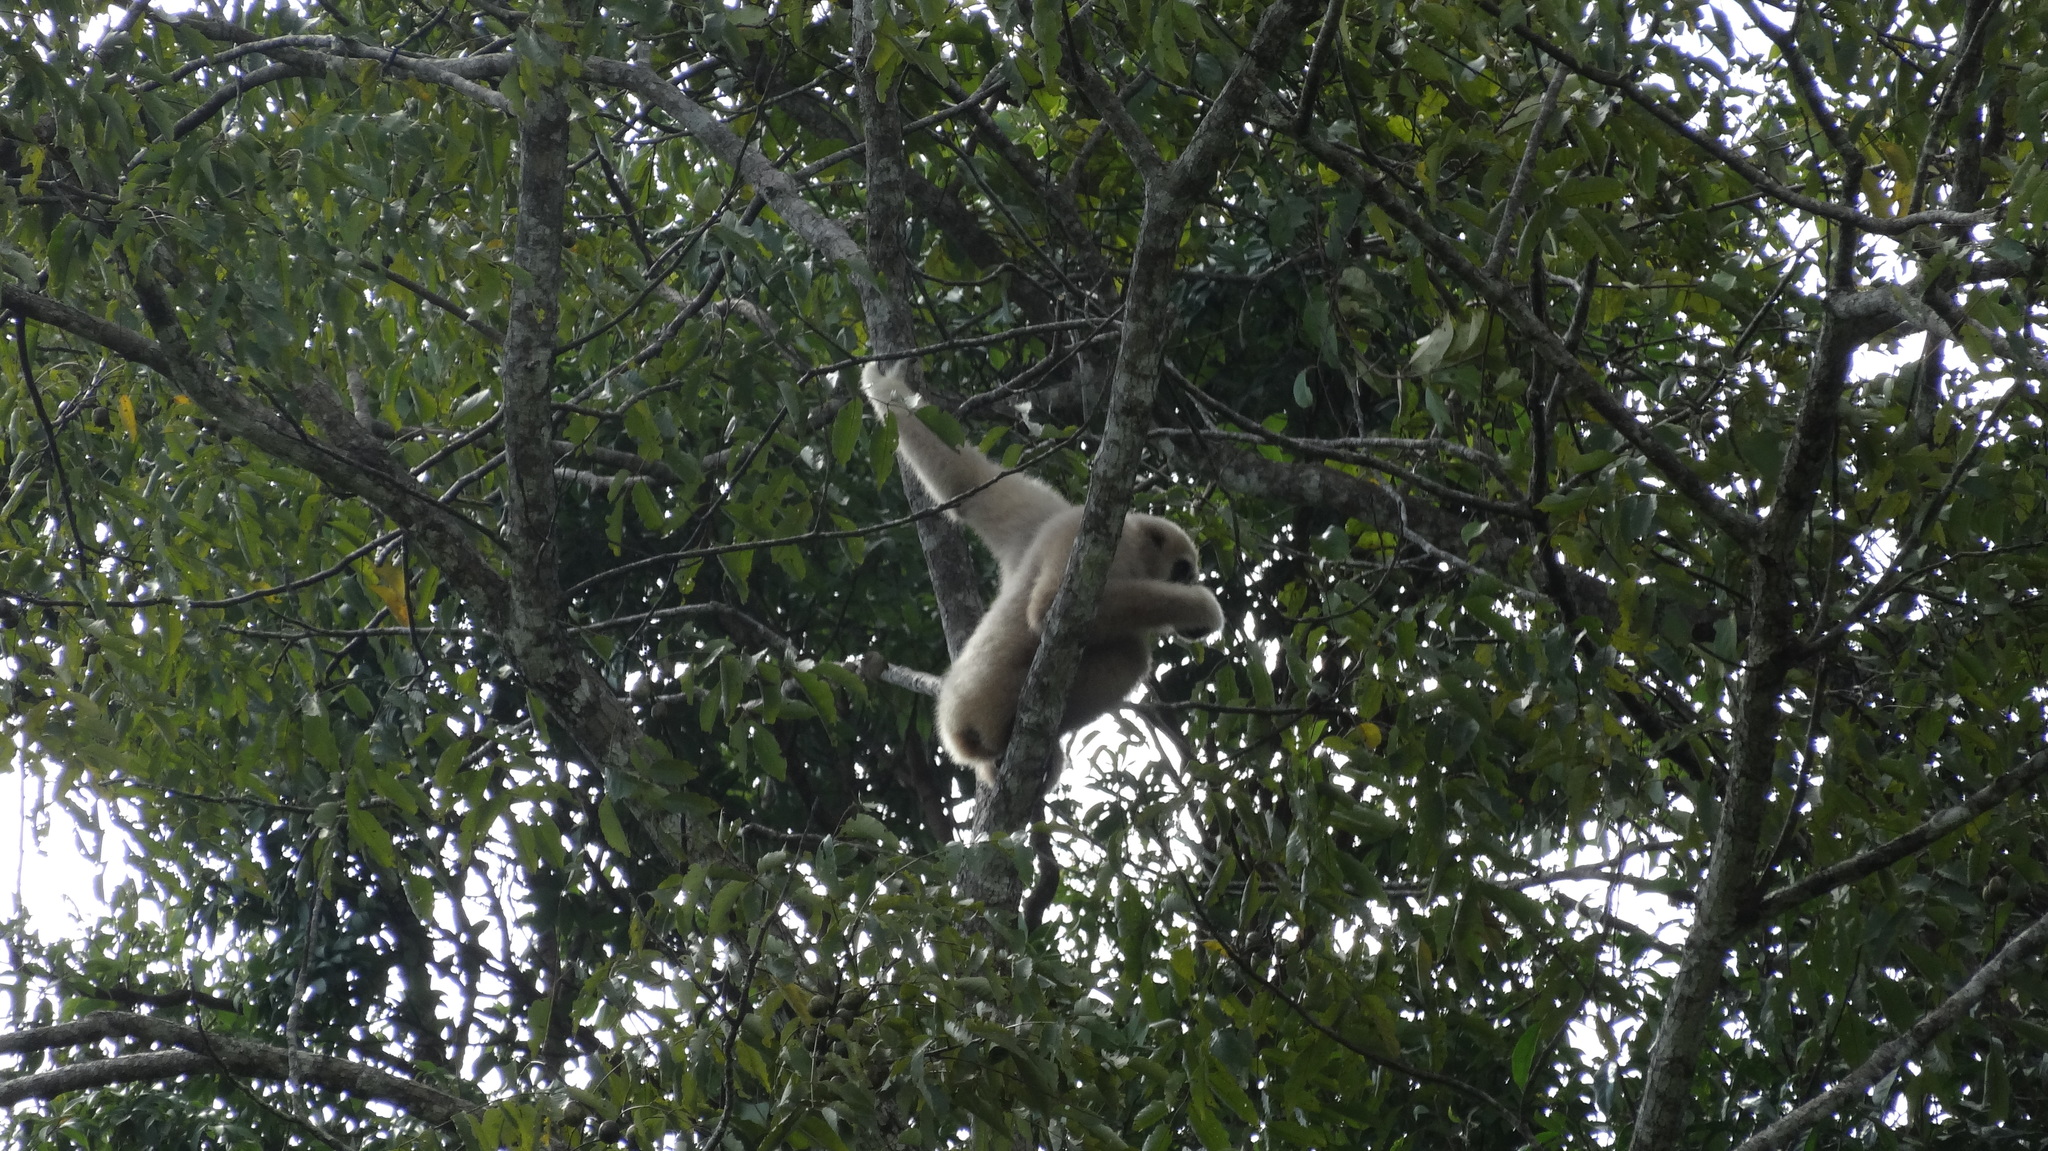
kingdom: Animalia
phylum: Chordata
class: Mammalia
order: Primates
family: Hylobatidae
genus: Hylobates
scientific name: Hylobates lar
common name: Lar gibbon
